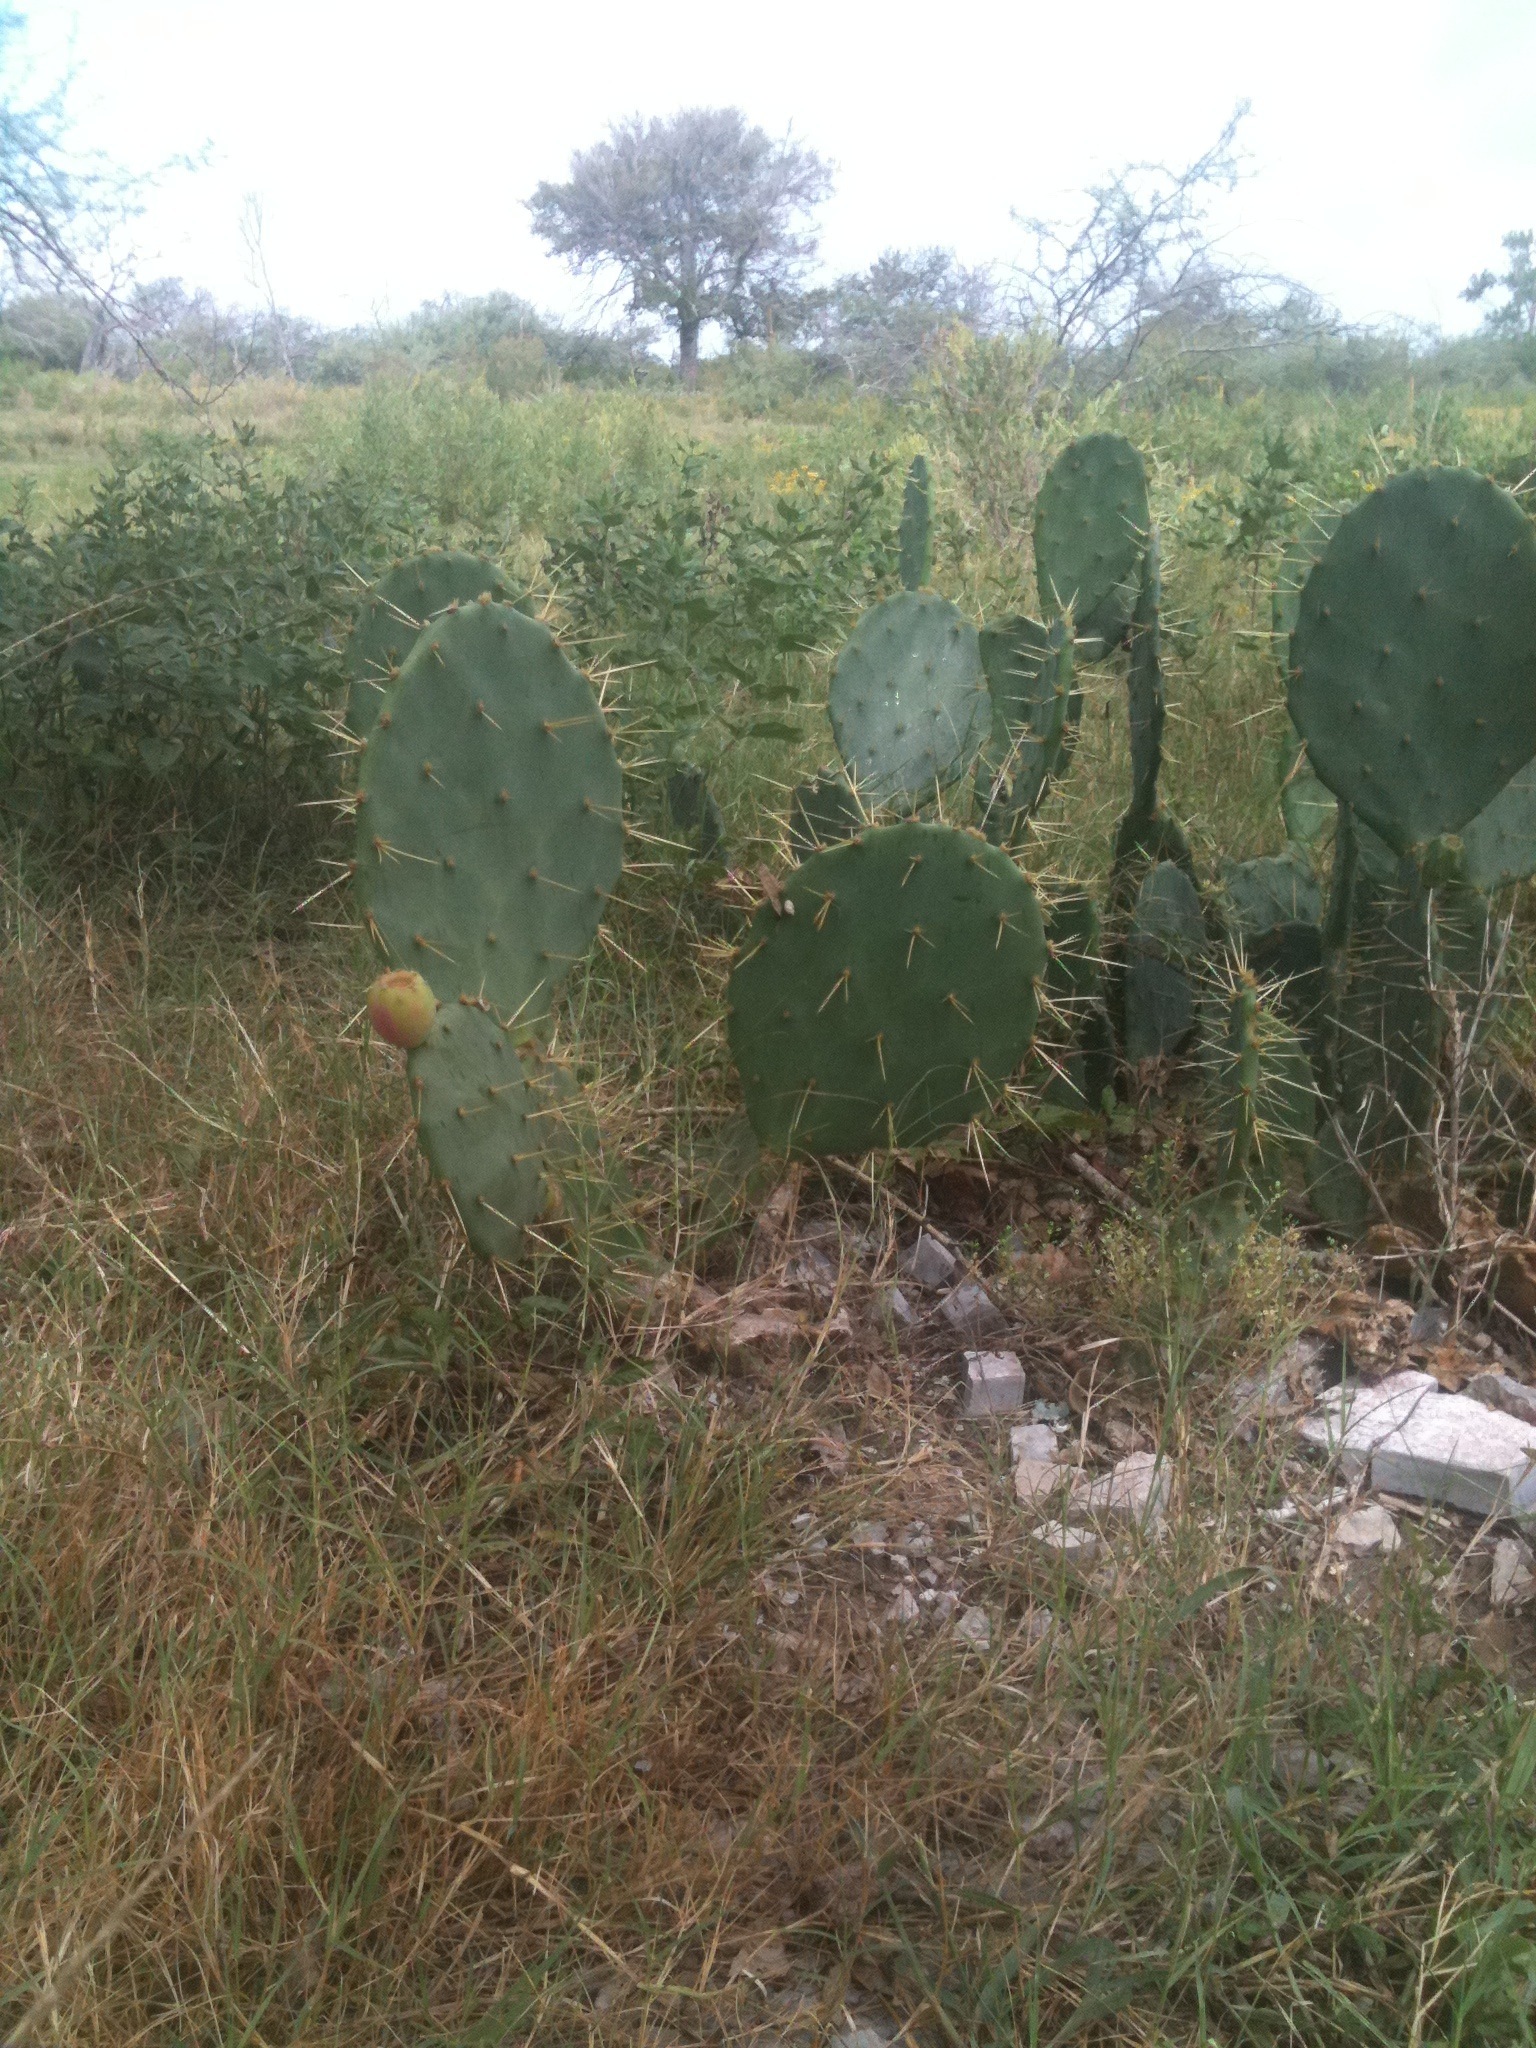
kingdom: Plantae
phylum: Tracheophyta
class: Magnoliopsida
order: Caryophyllales
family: Cactaceae
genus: Opuntia
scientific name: Opuntia stricta
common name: Erect pricklypear
